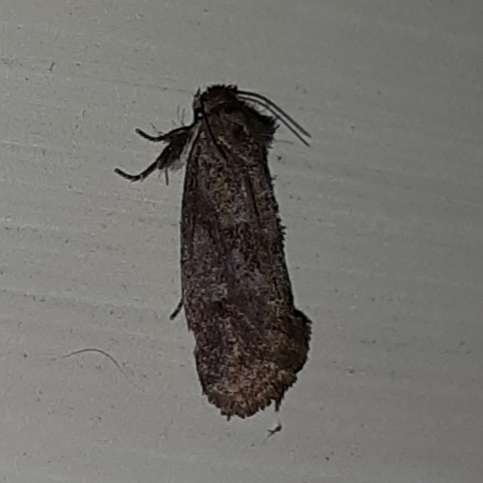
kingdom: Animalia
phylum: Arthropoda
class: Insecta
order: Lepidoptera
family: Tineidae
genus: Acrolophus
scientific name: Acrolophus panamae
